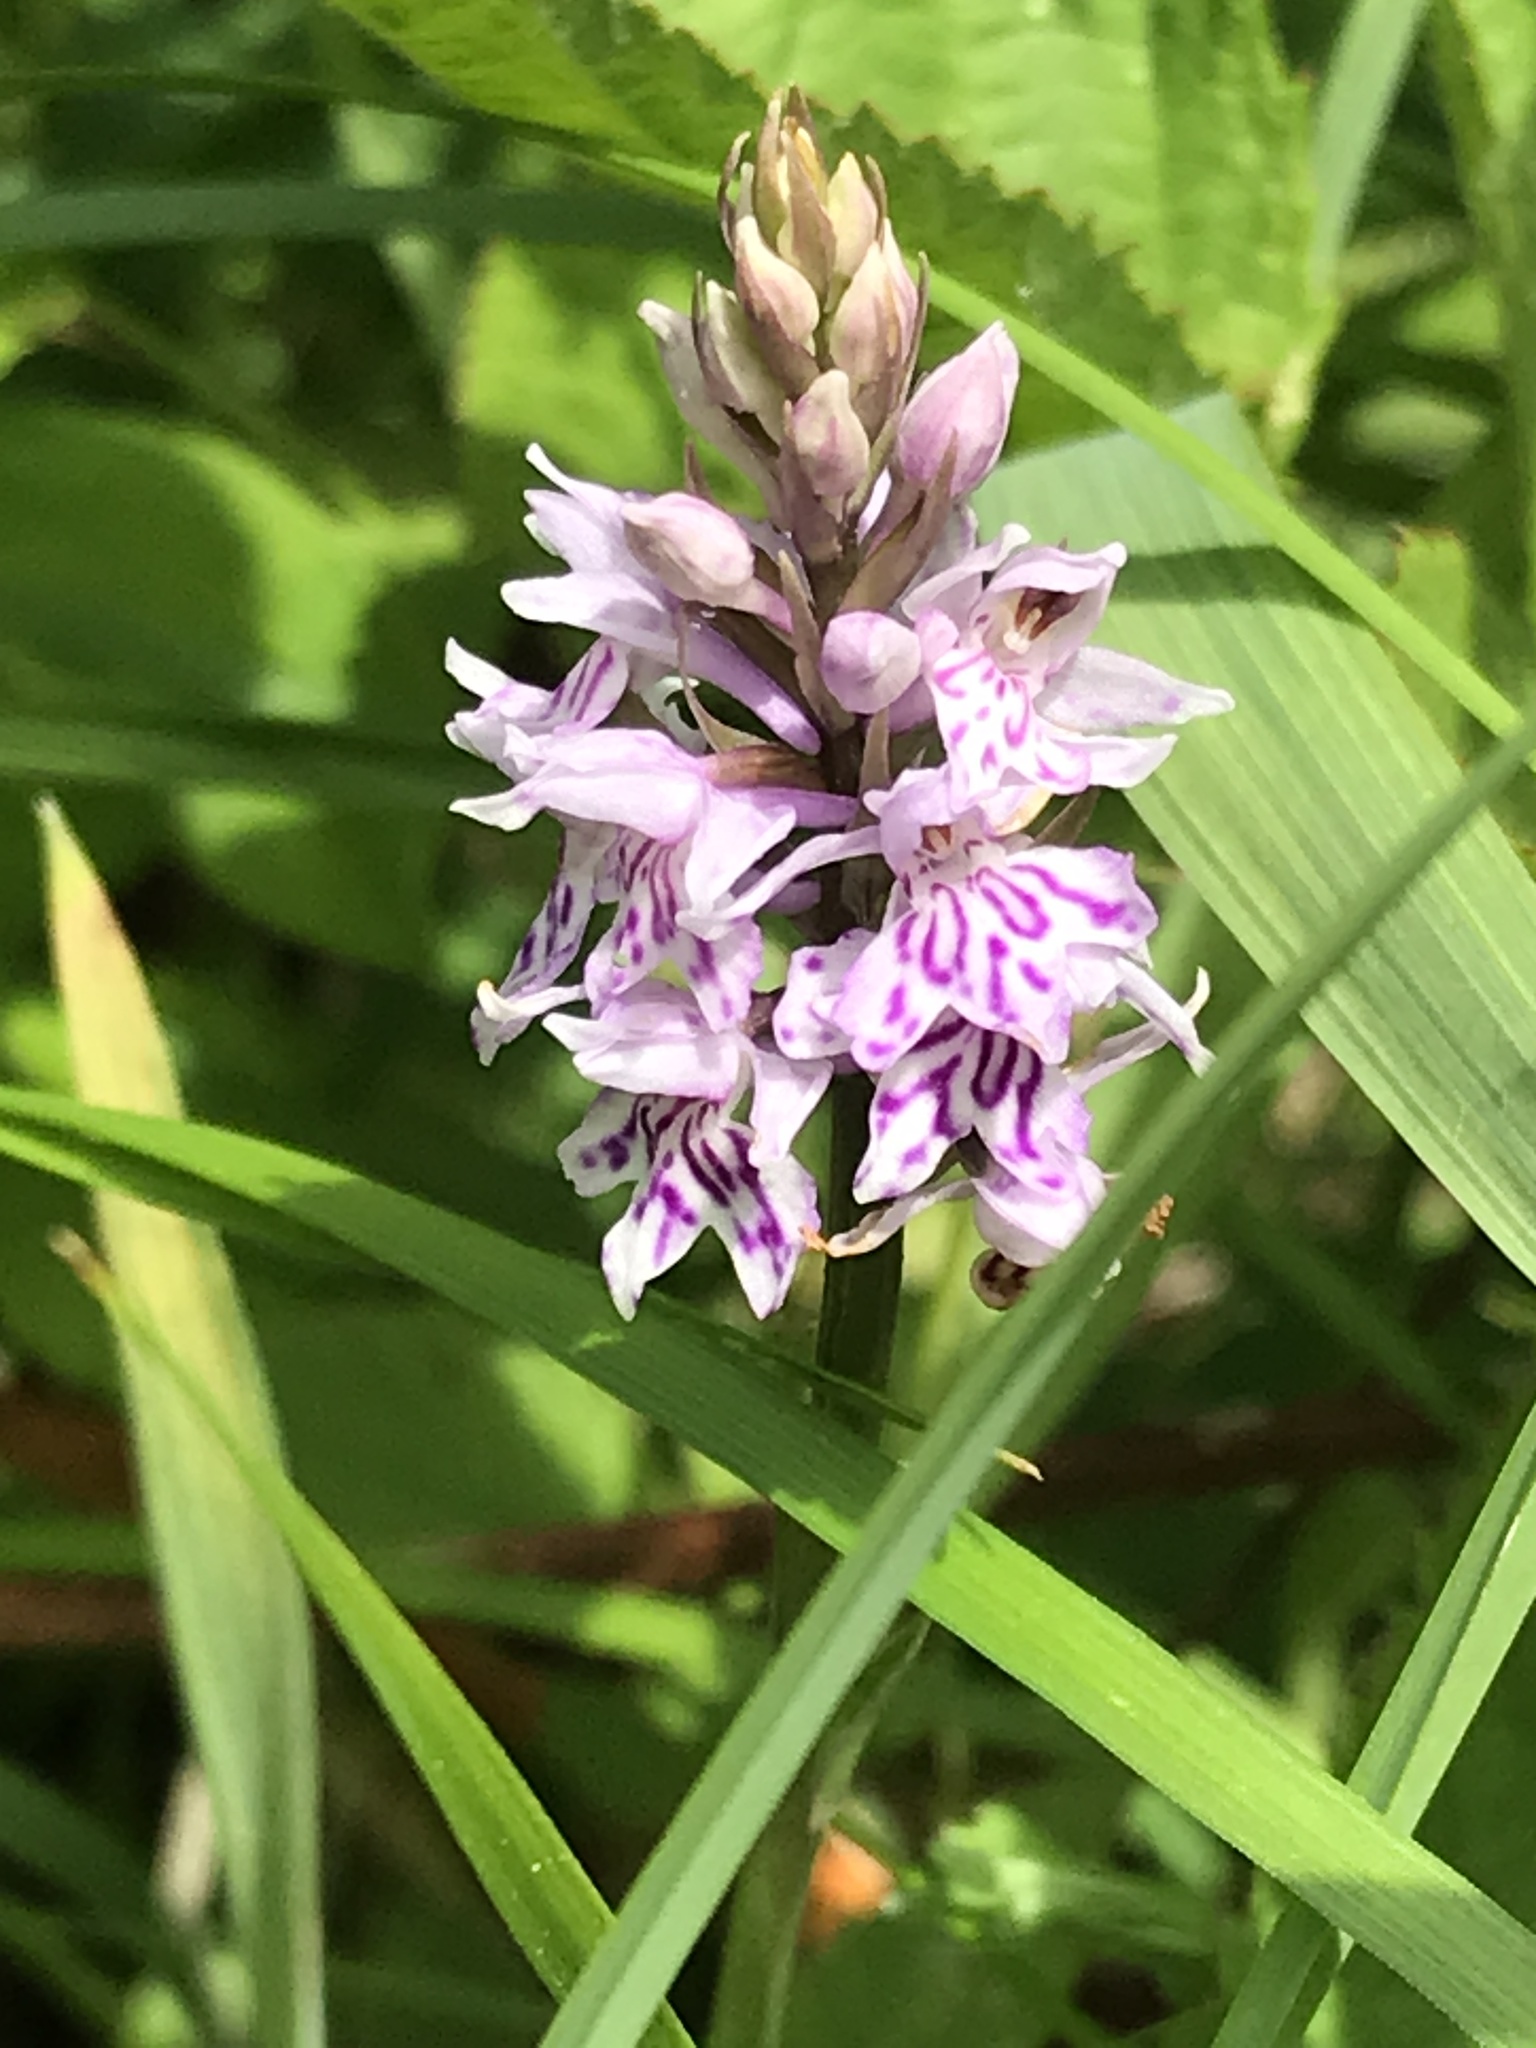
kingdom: Plantae
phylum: Tracheophyta
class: Liliopsida
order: Asparagales
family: Orchidaceae
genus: Dactylorhiza
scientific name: Dactylorhiza maculata
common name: Heath spotted-orchid
